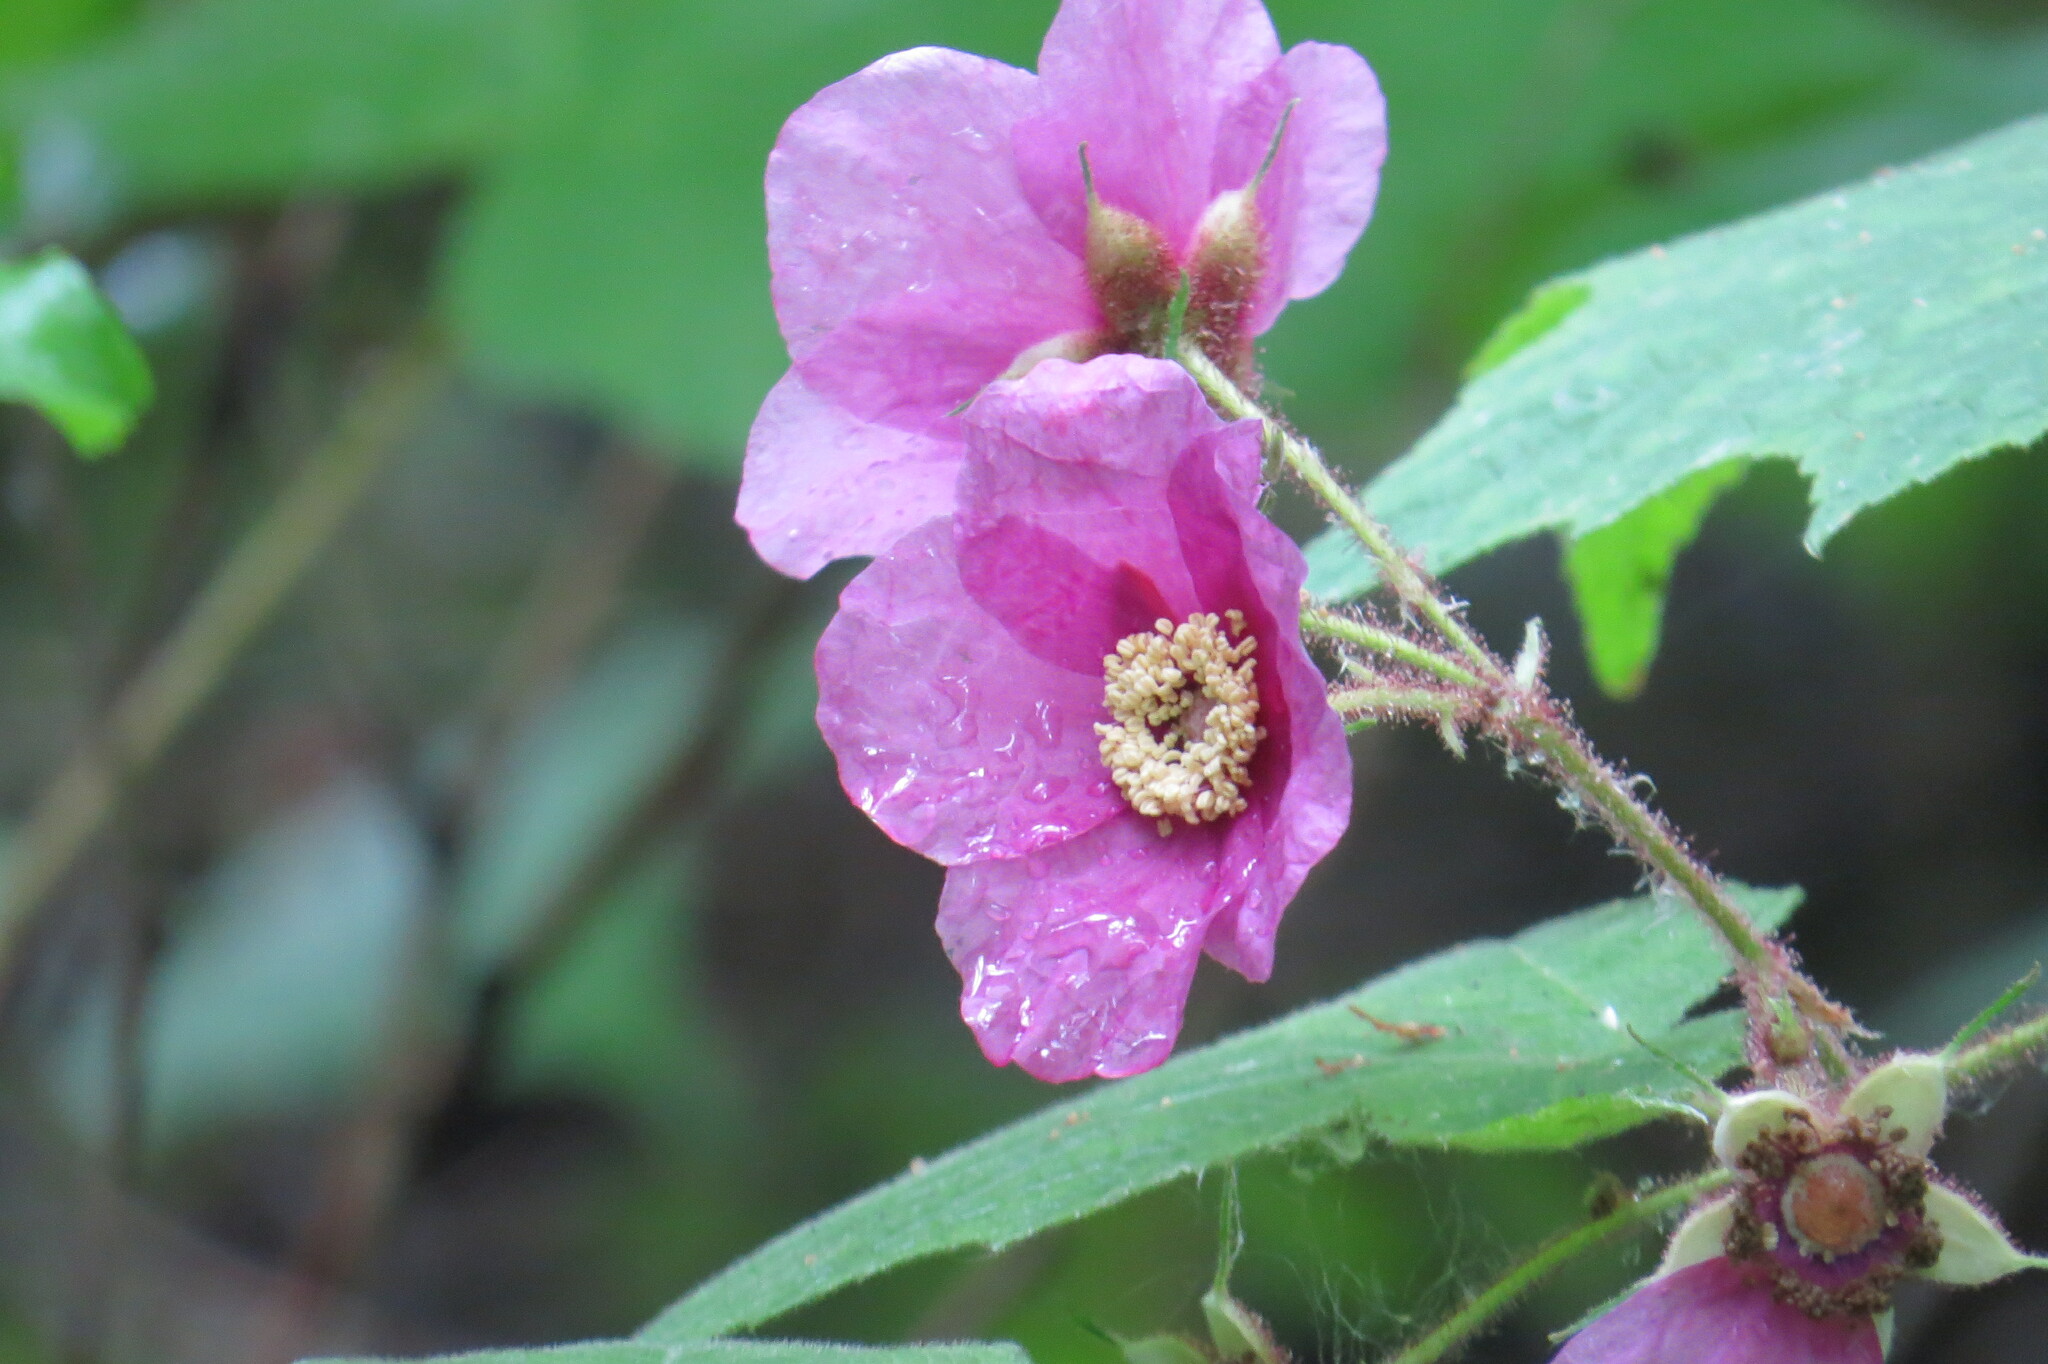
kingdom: Plantae
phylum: Tracheophyta
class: Magnoliopsida
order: Rosales
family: Rosaceae
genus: Rubus
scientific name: Rubus odoratus
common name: Purple-flowered raspberry
